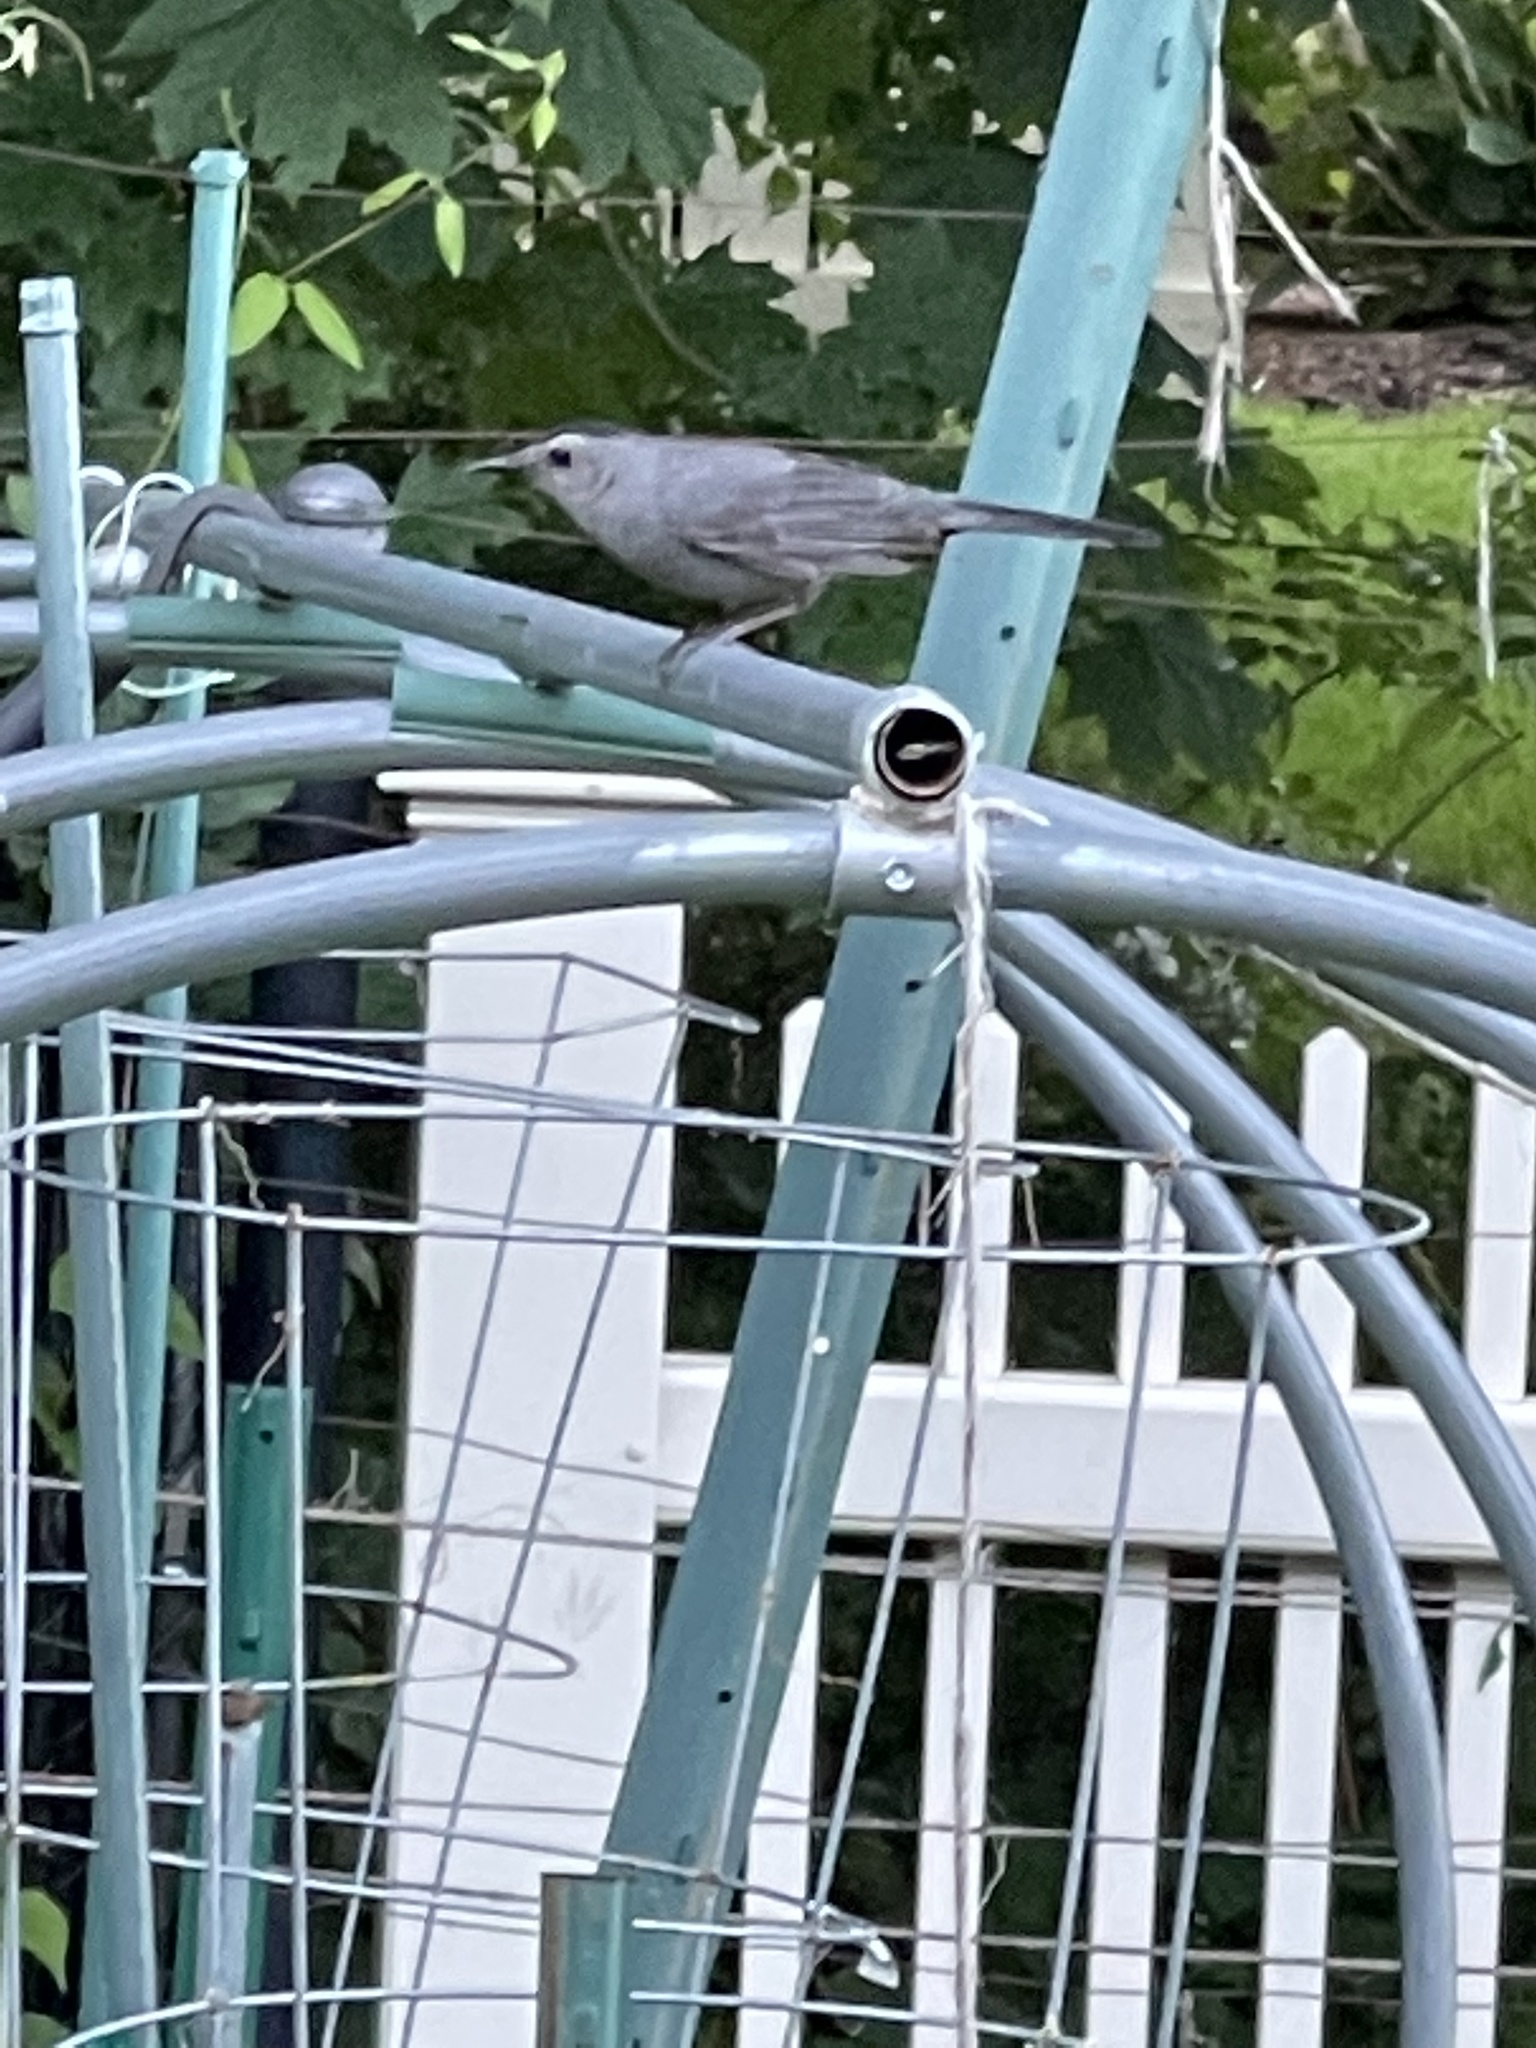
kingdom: Animalia
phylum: Chordata
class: Aves
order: Passeriformes
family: Mimidae
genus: Dumetella
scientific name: Dumetella carolinensis
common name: Gray catbird
